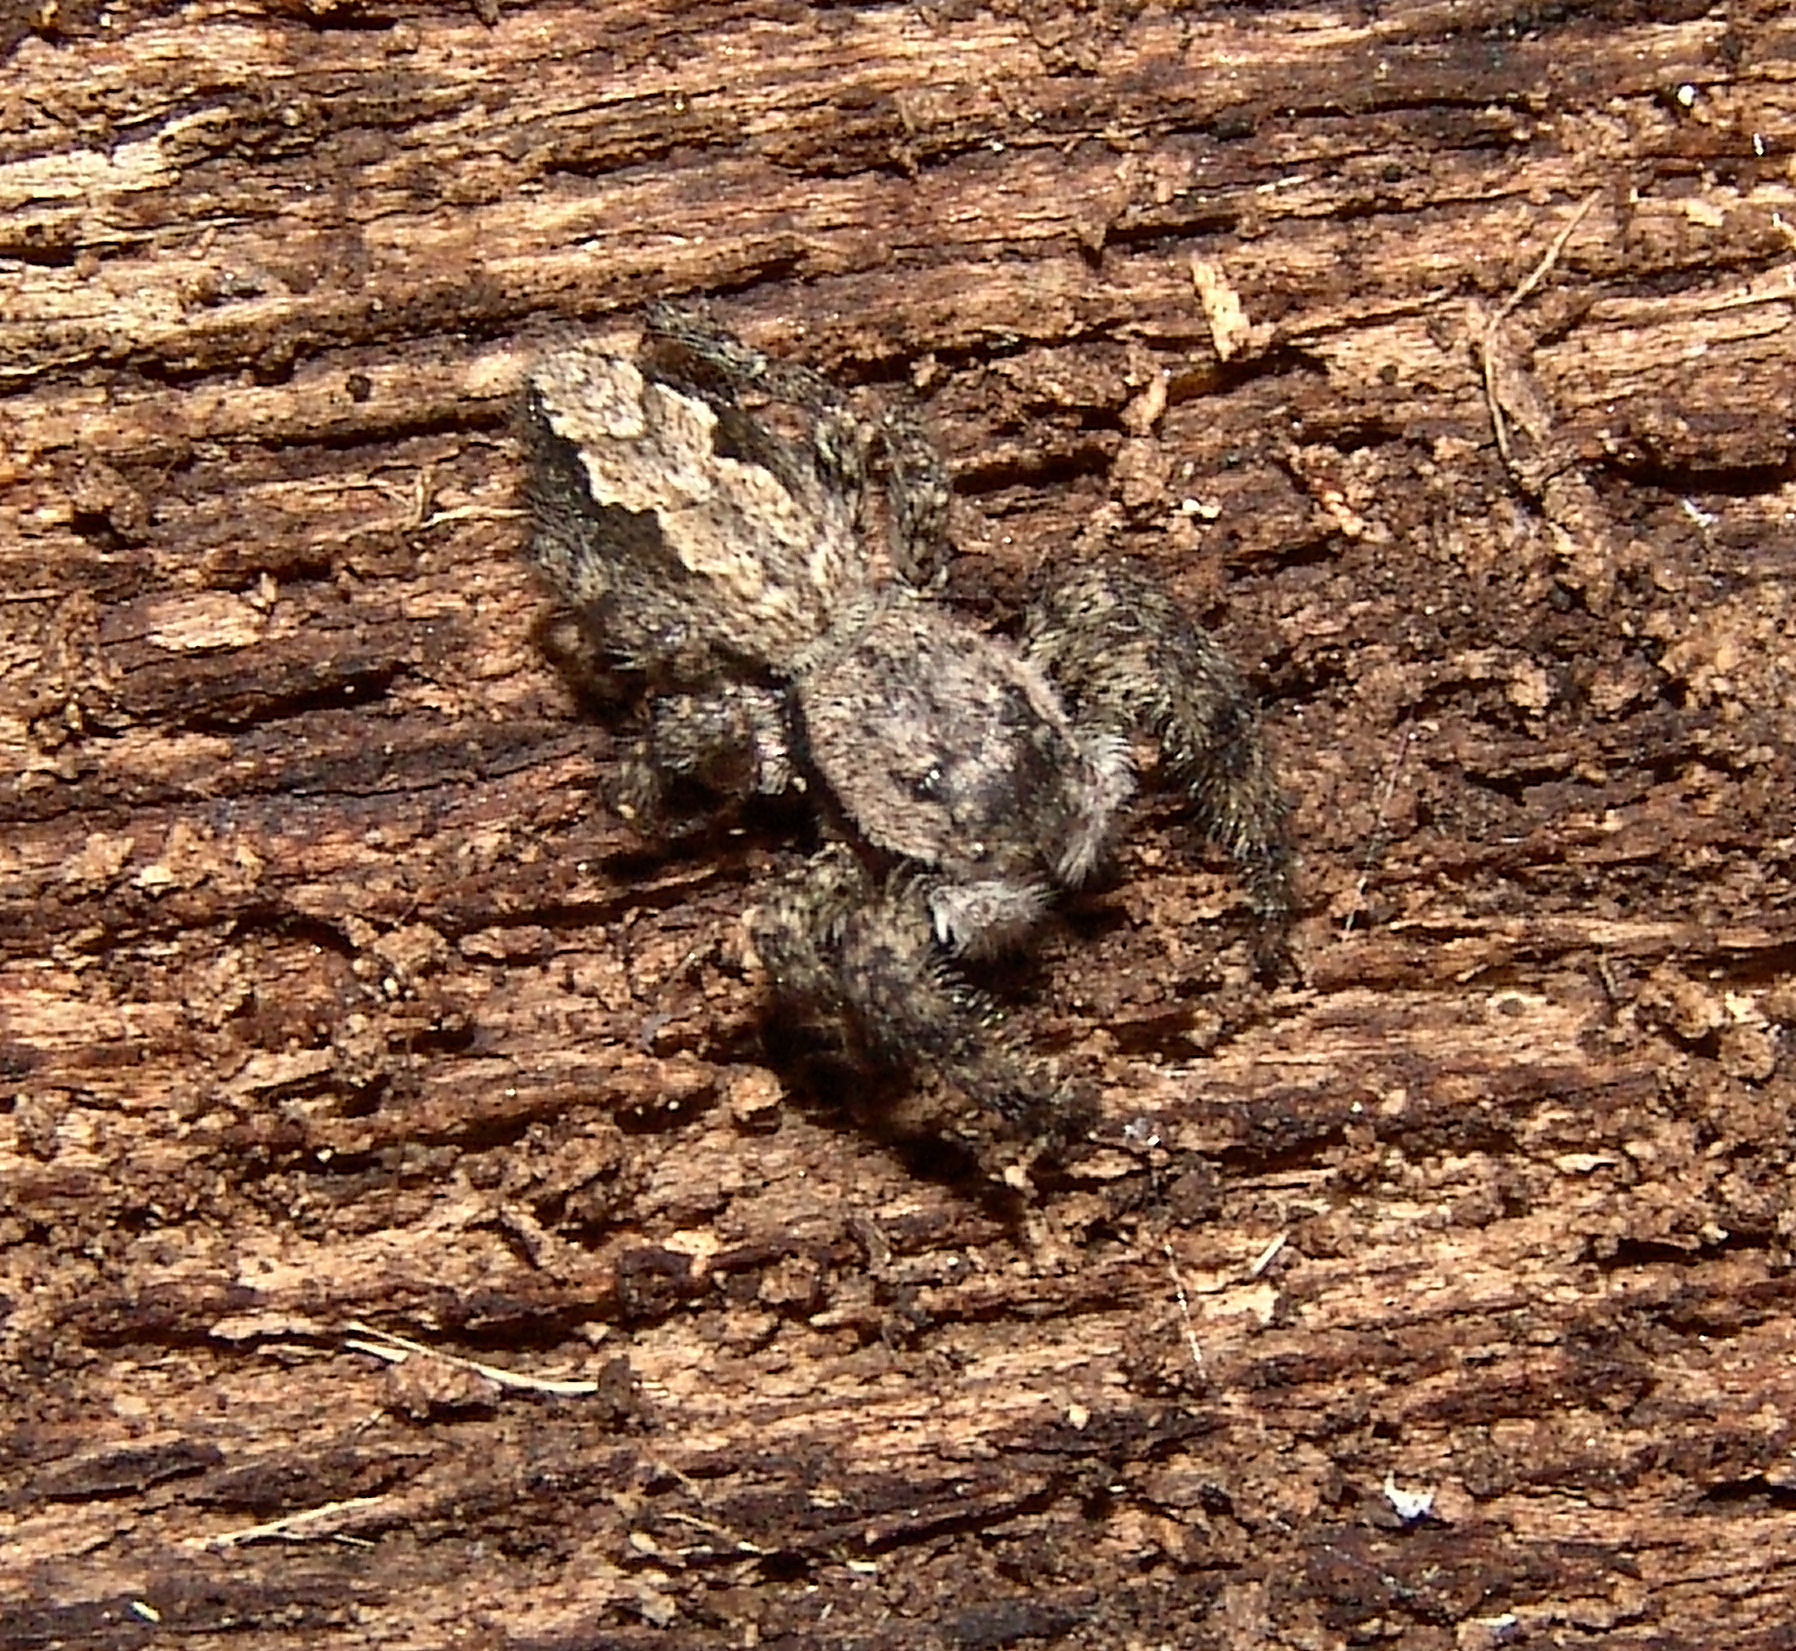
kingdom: Animalia
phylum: Arthropoda
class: Arachnida
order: Araneae
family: Salticidae
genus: Platycryptus
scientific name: Platycryptus undatus
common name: Tan jumping spider
